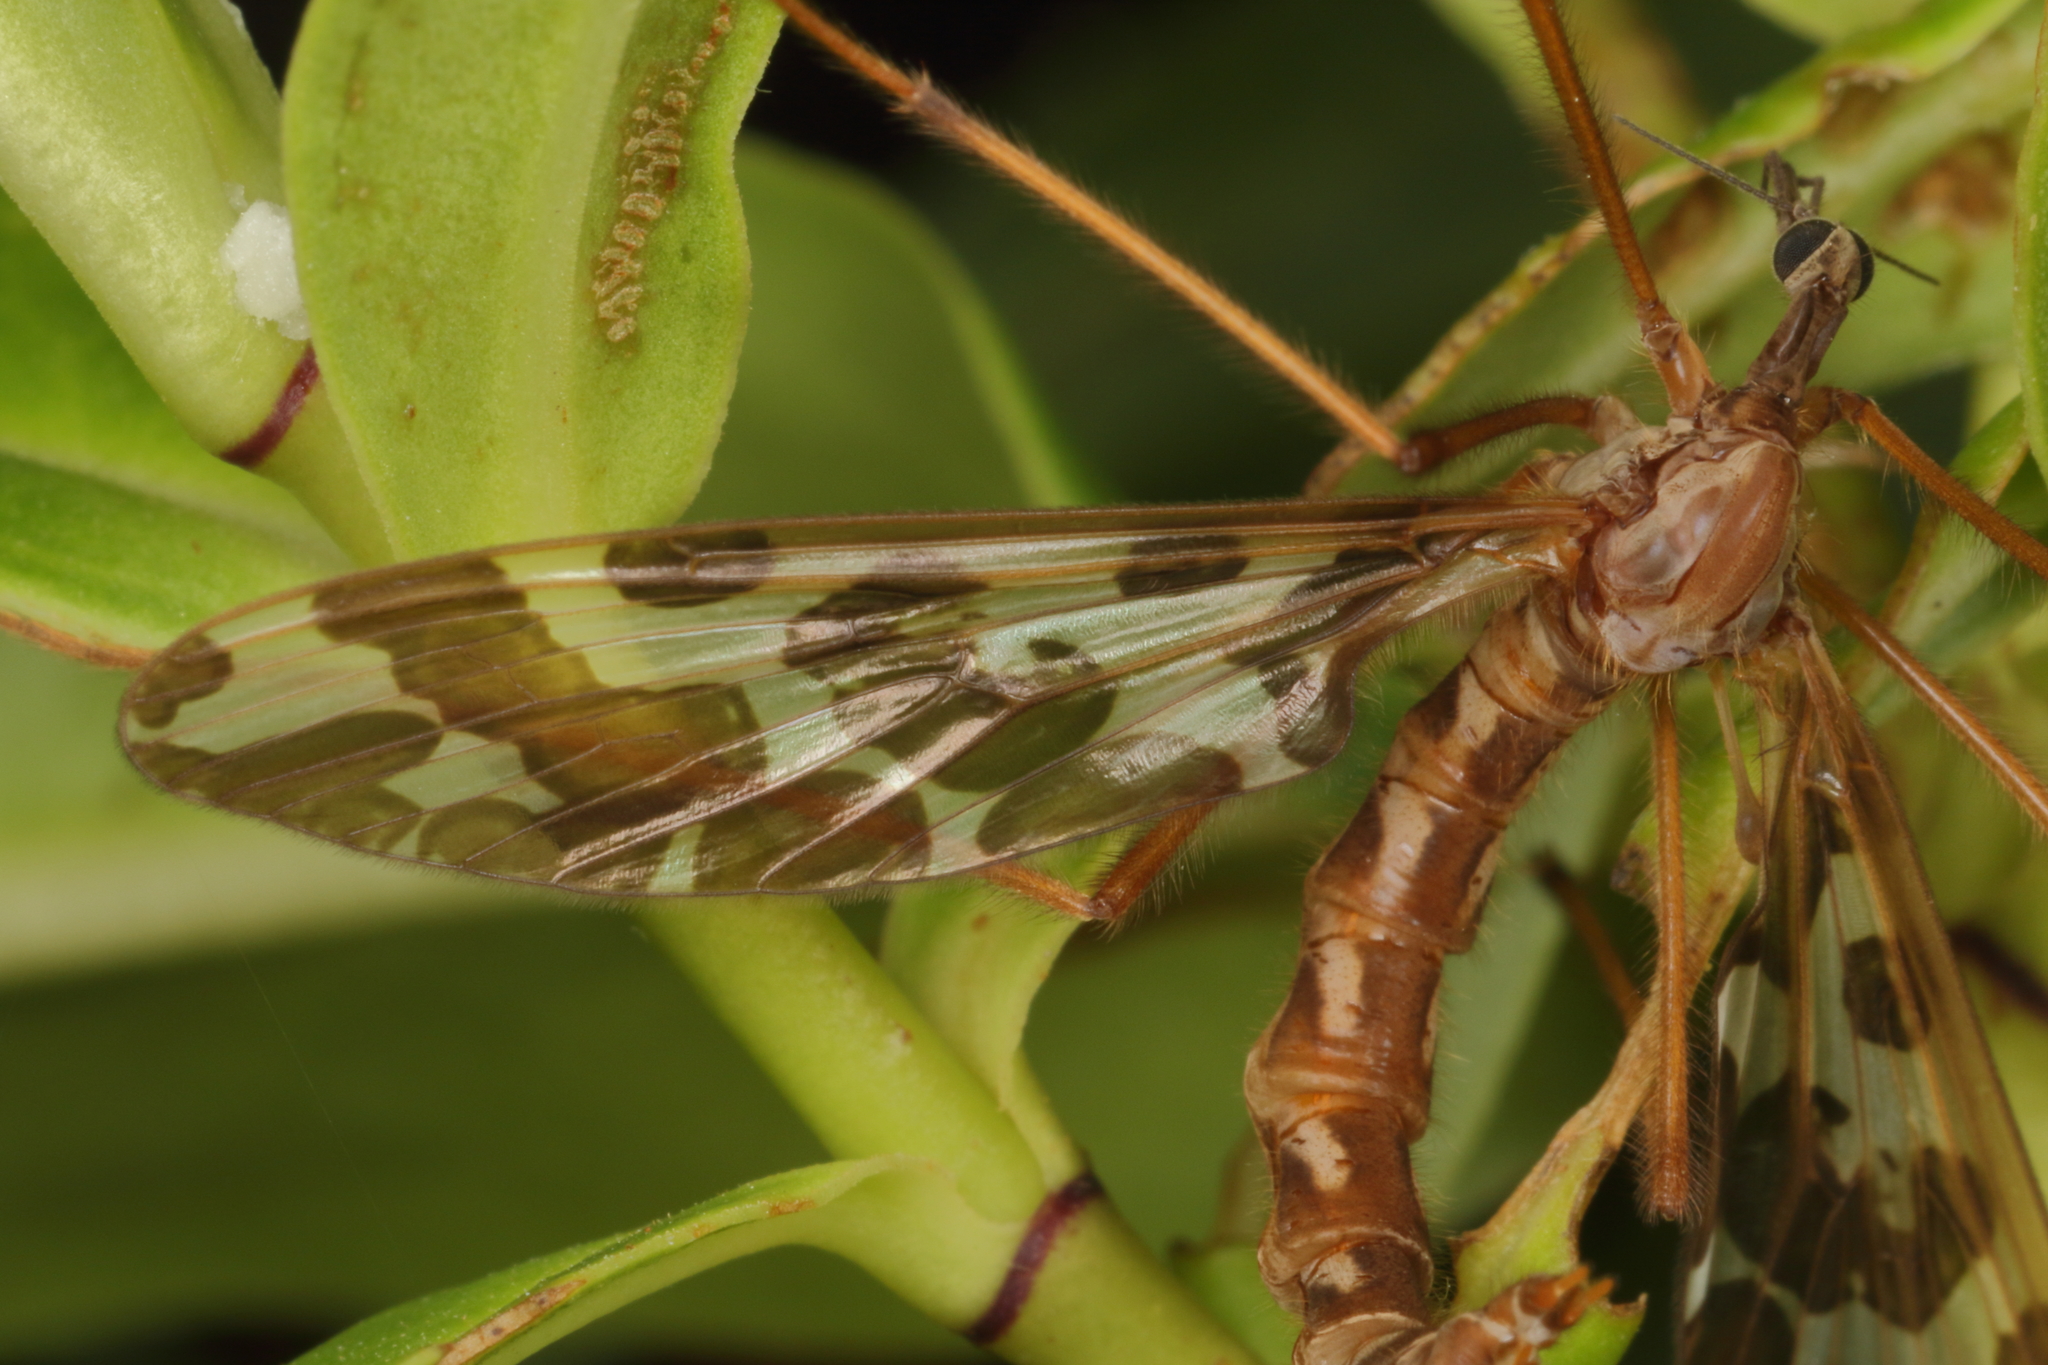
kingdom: Animalia
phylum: Arthropoda
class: Insecta
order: Diptera
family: Tanyderidae
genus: Tanyderus
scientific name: Tanyderus forcipatus
